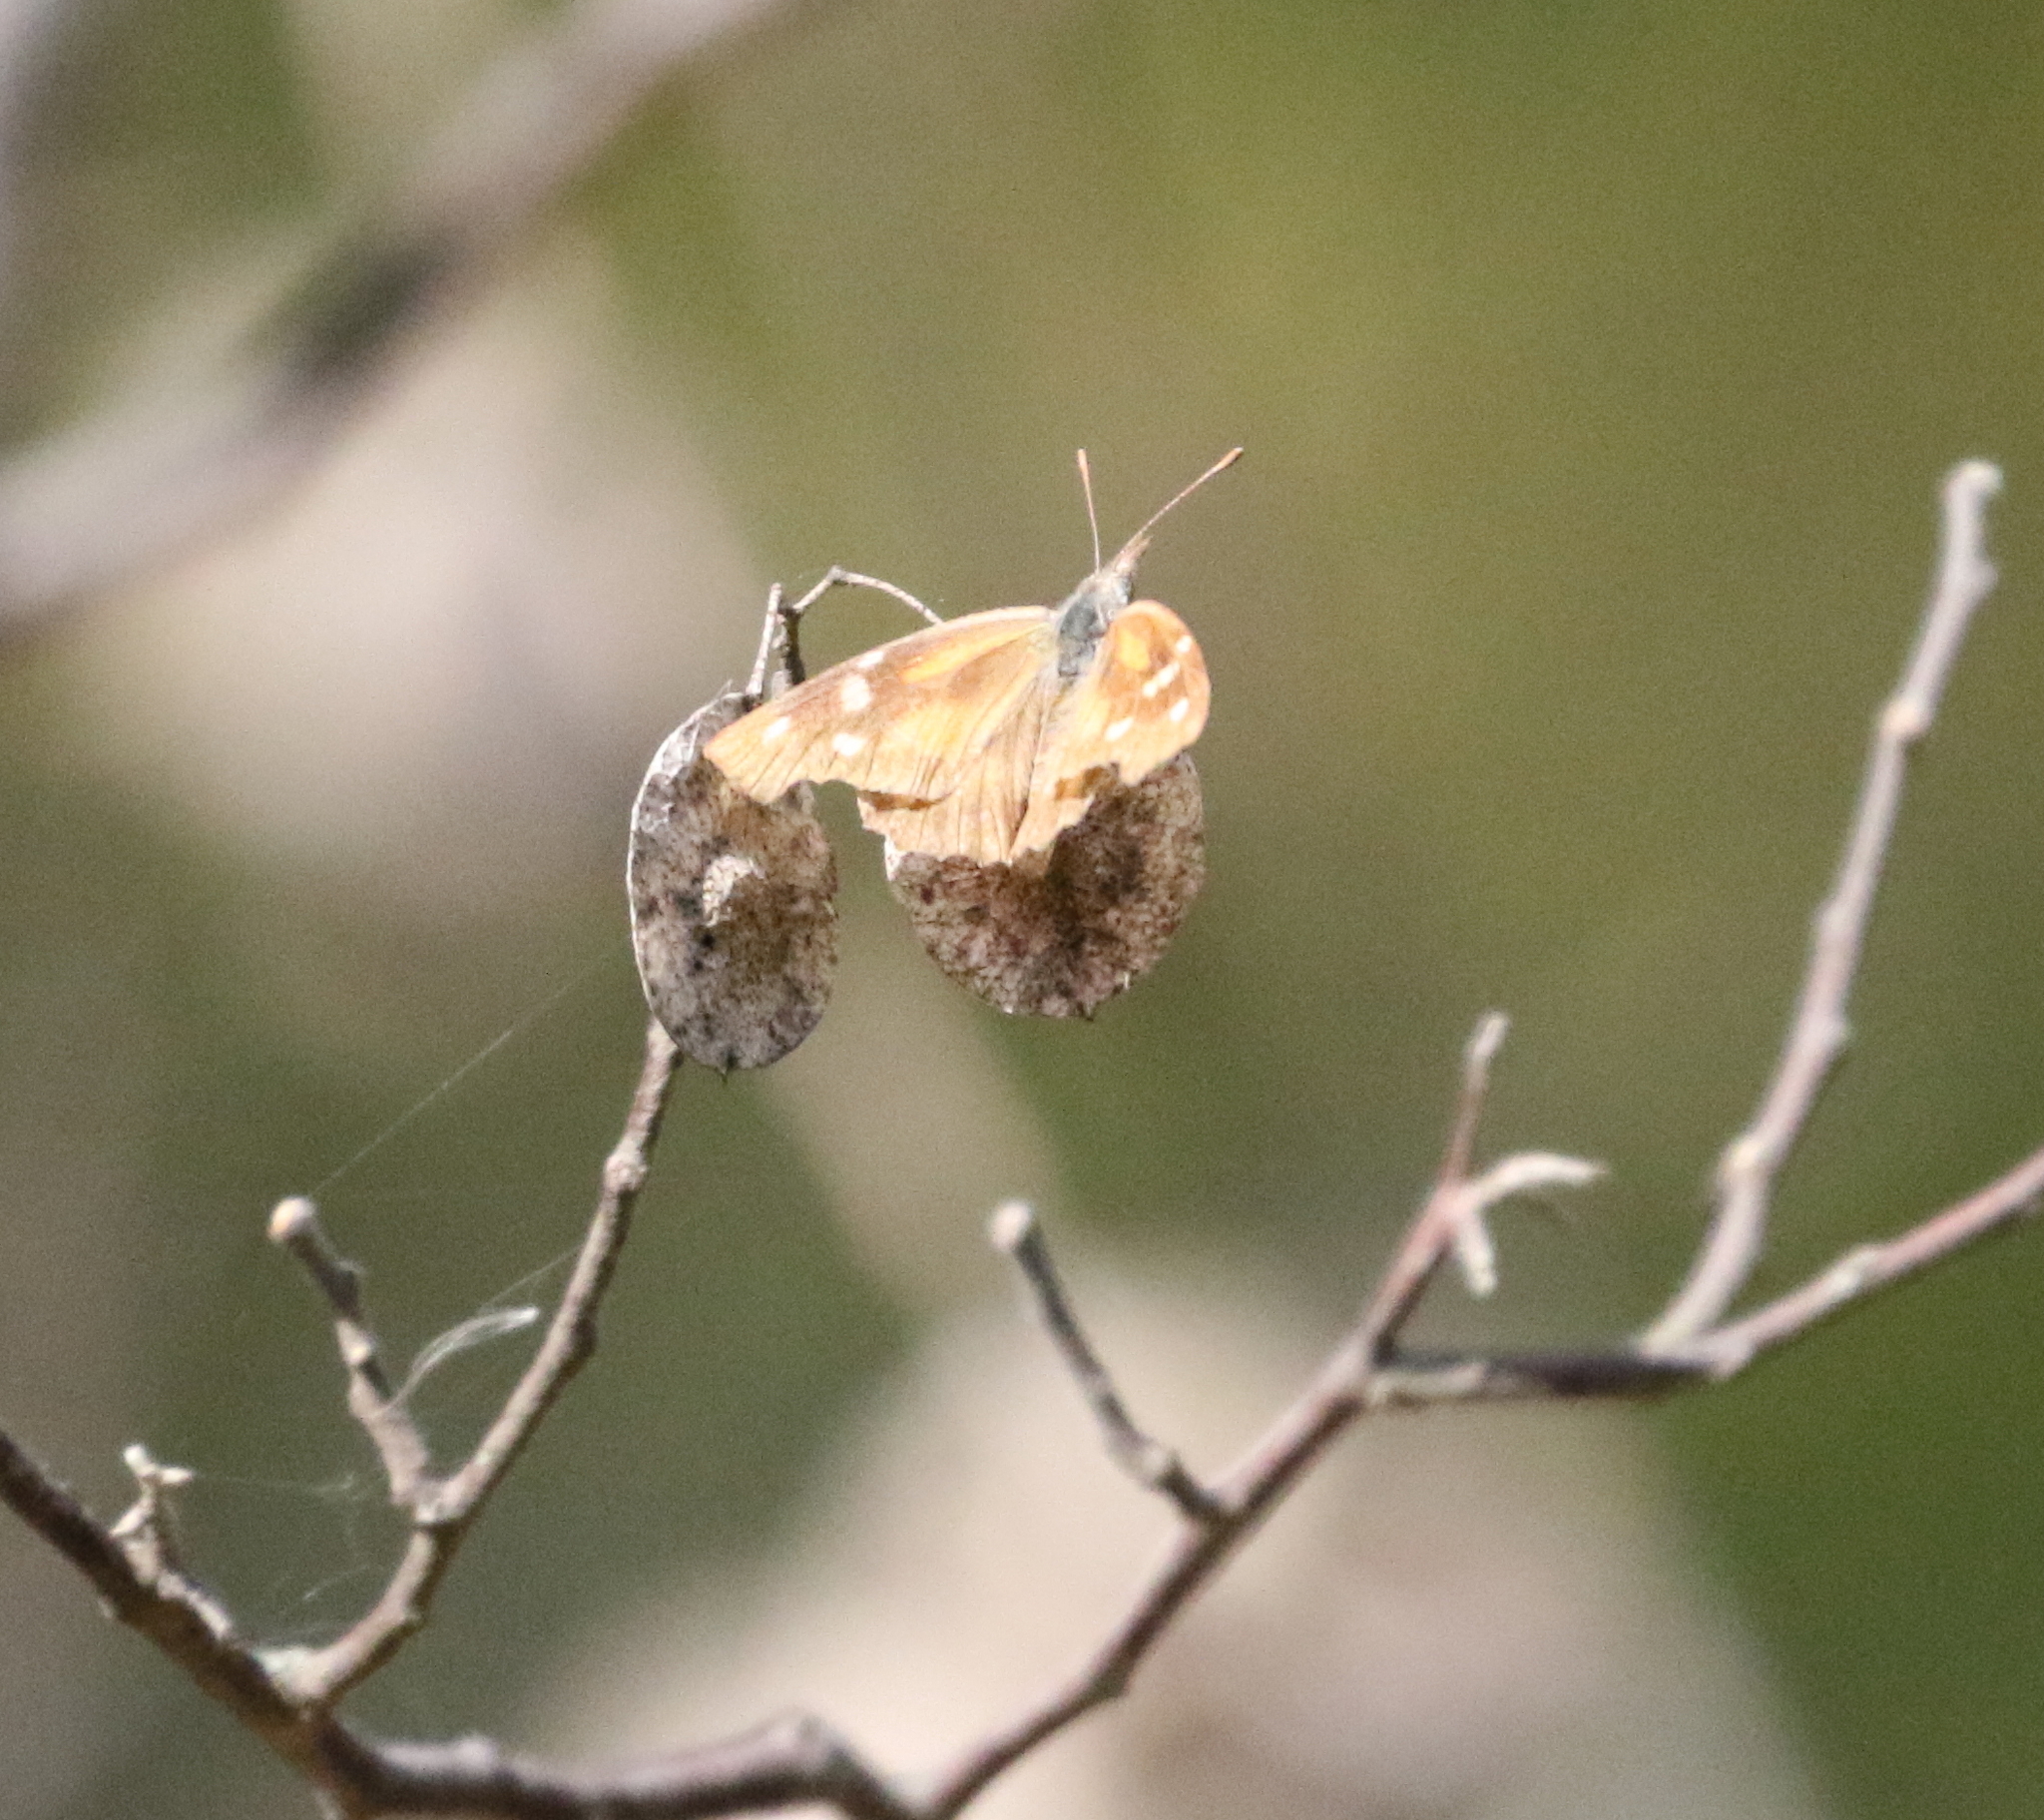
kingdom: Animalia
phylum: Arthropoda
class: Insecta
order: Lepidoptera
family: Nymphalidae
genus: Libytheana
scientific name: Libytheana carinenta
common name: American snout
